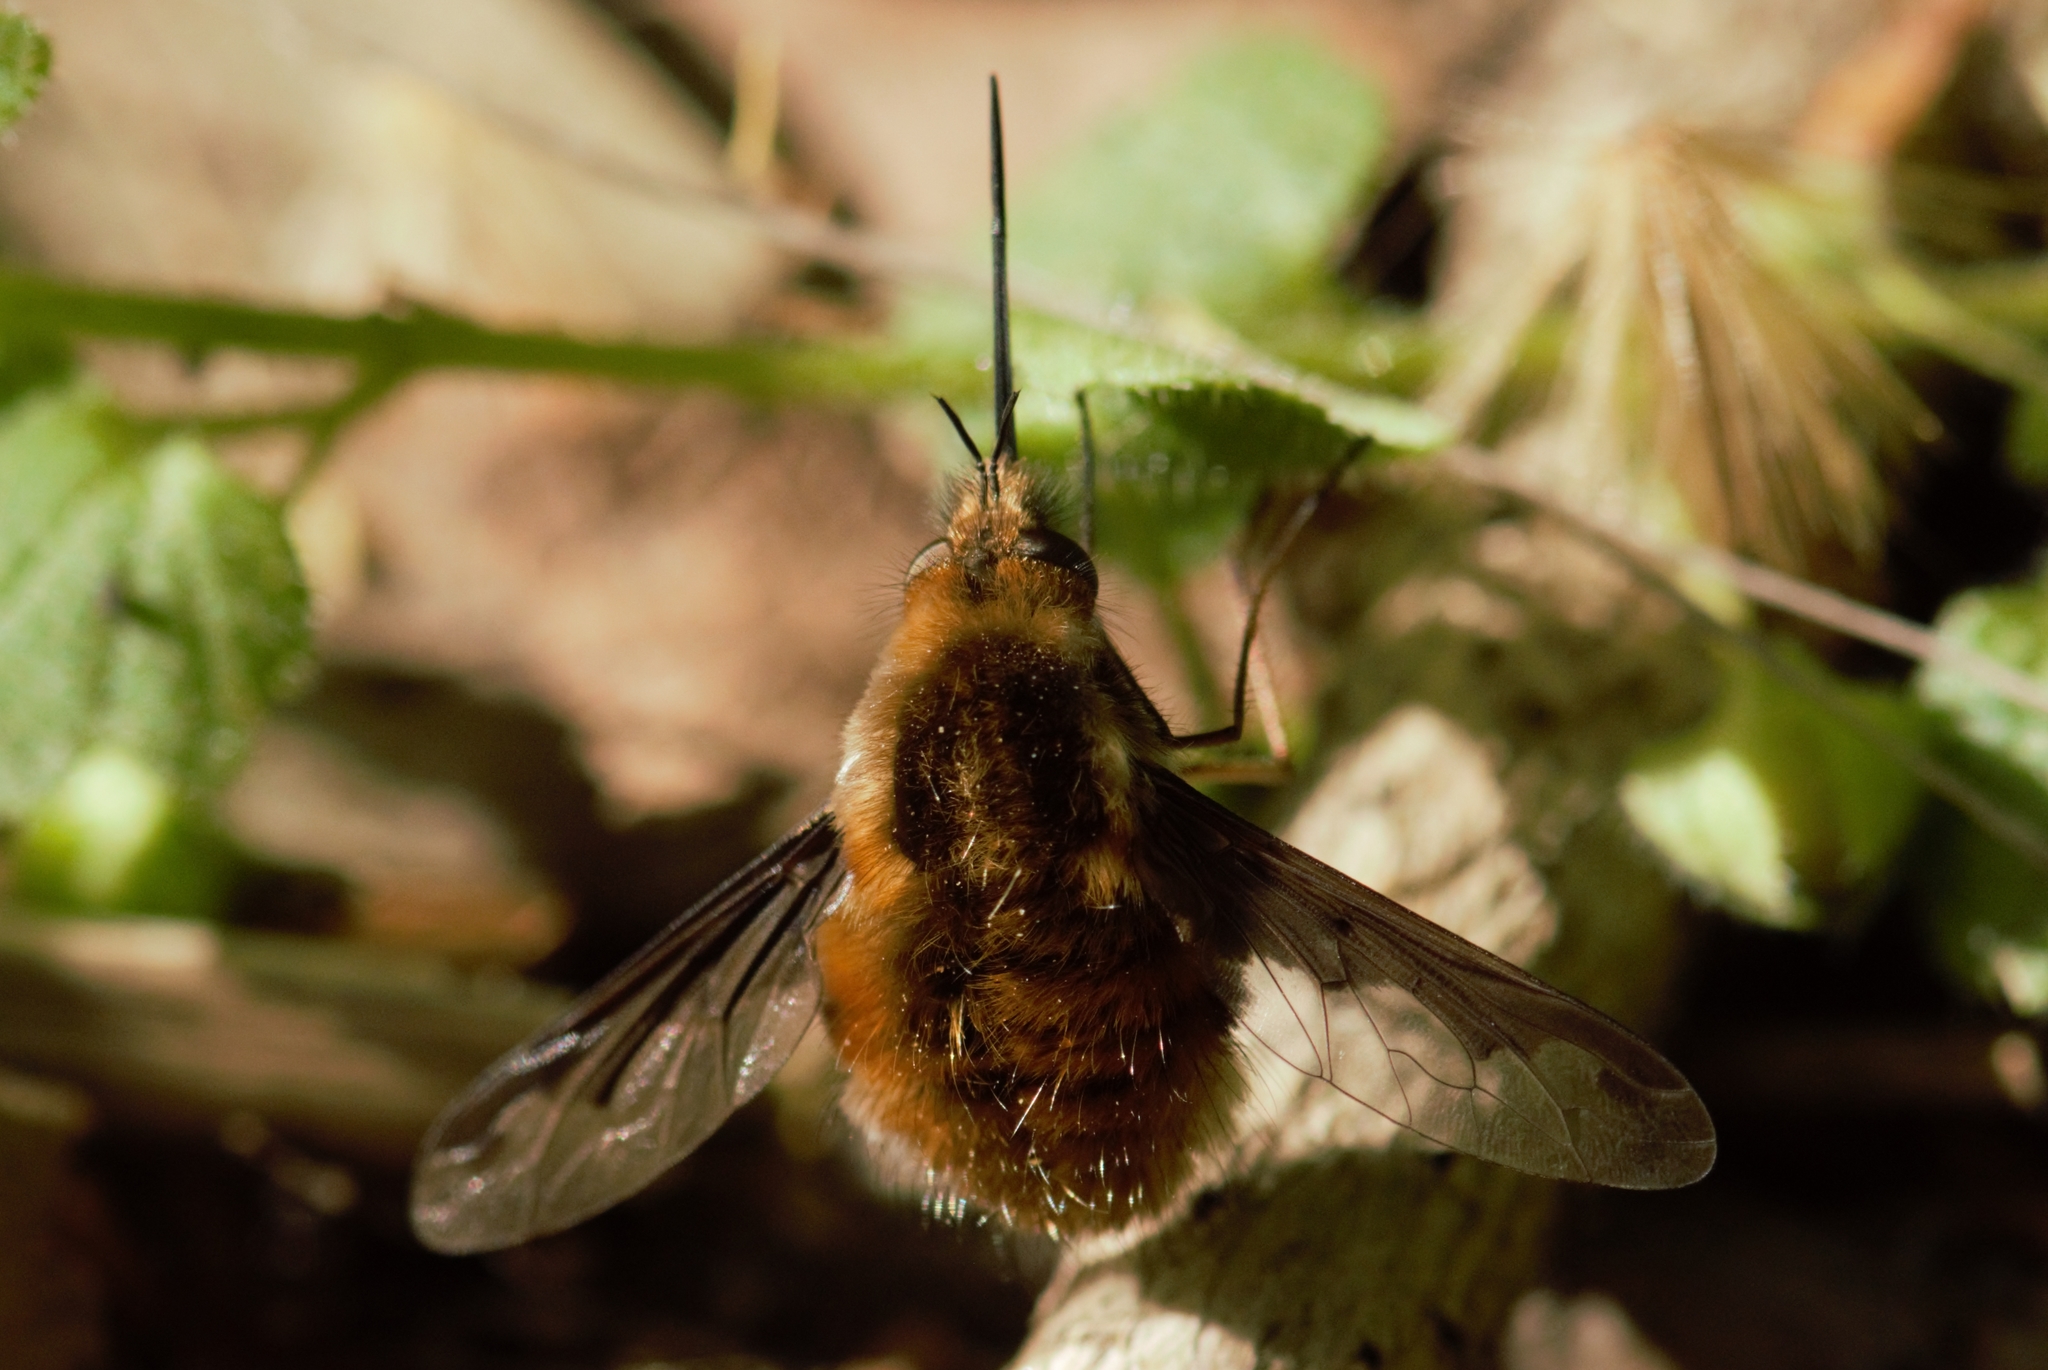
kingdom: Animalia
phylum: Arthropoda
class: Insecta
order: Diptera
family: Bombyliidae
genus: Bombylius
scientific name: Bombylius major
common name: Bee fly
